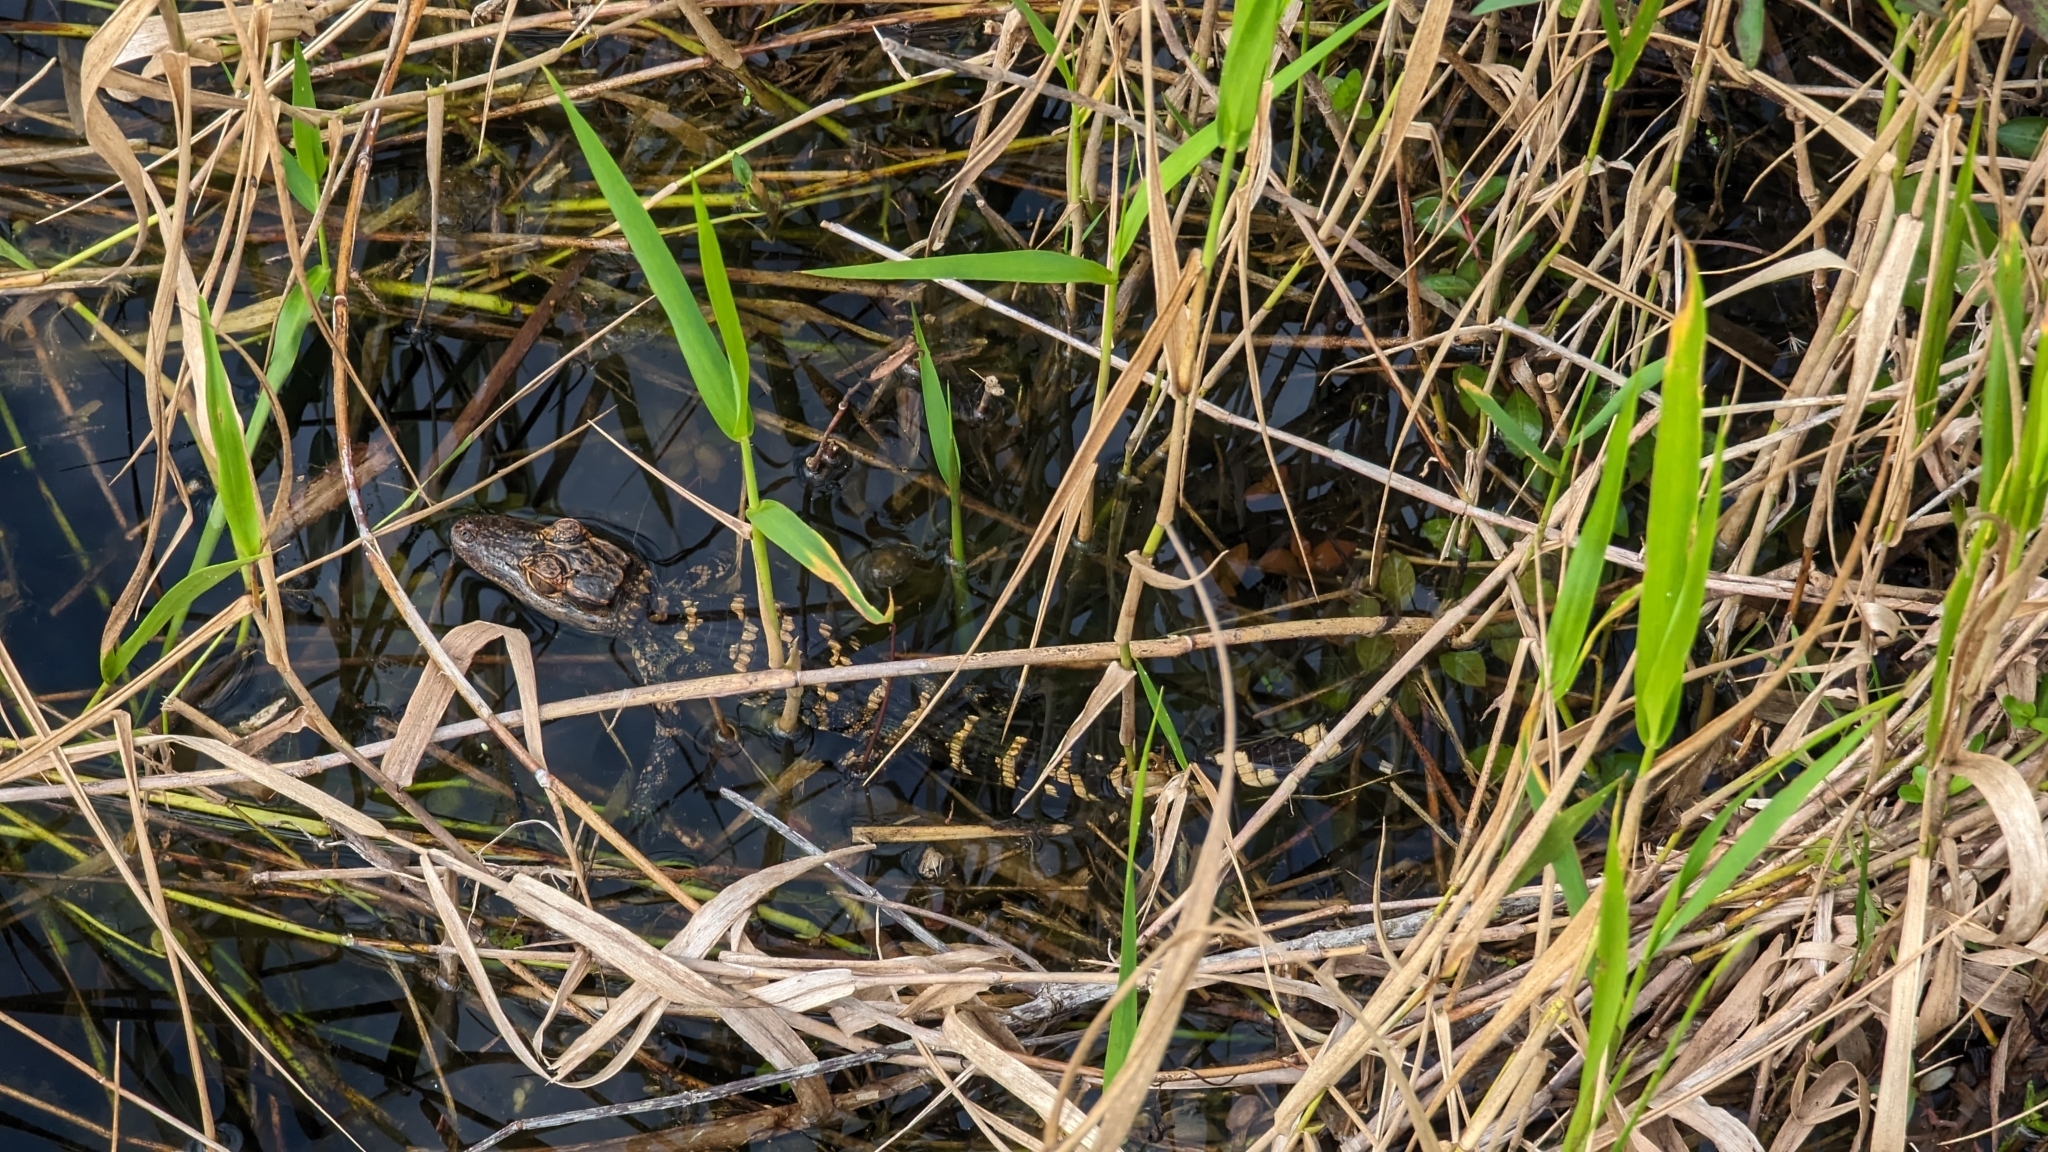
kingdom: Animalia
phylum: Chordata
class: Crocodylia
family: Alligatoridae
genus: Alligator
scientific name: Alligator mississippiensis
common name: American alligator
